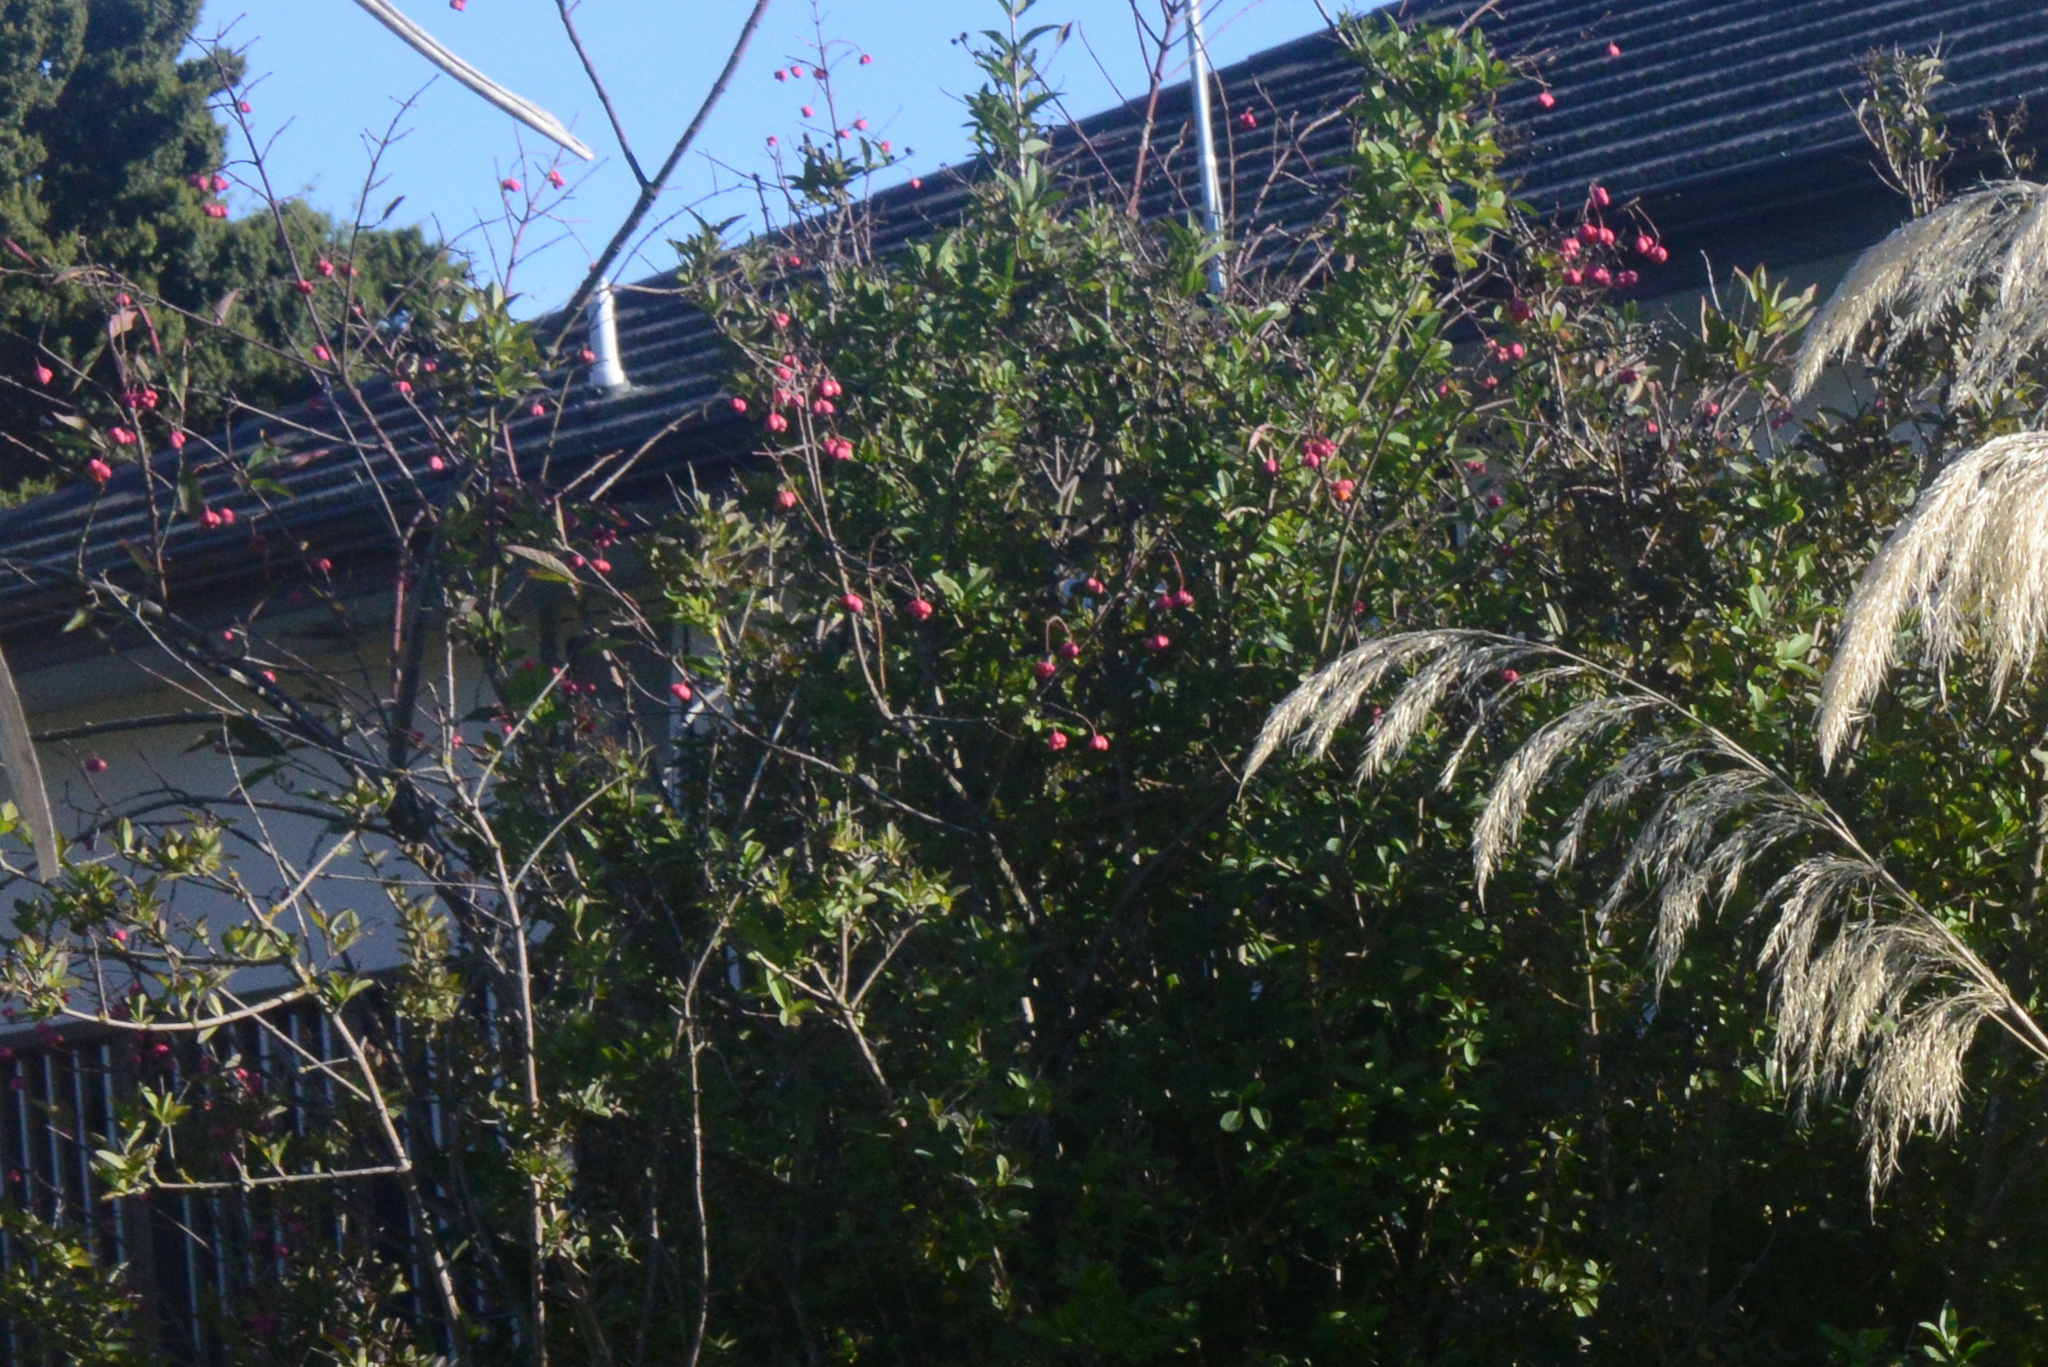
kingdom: Plantae
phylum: Tracheophyta
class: Magnoliopsida
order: Celastrales
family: Celastraceae
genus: Euonymus
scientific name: Euonymus europaeus
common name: Spindle
